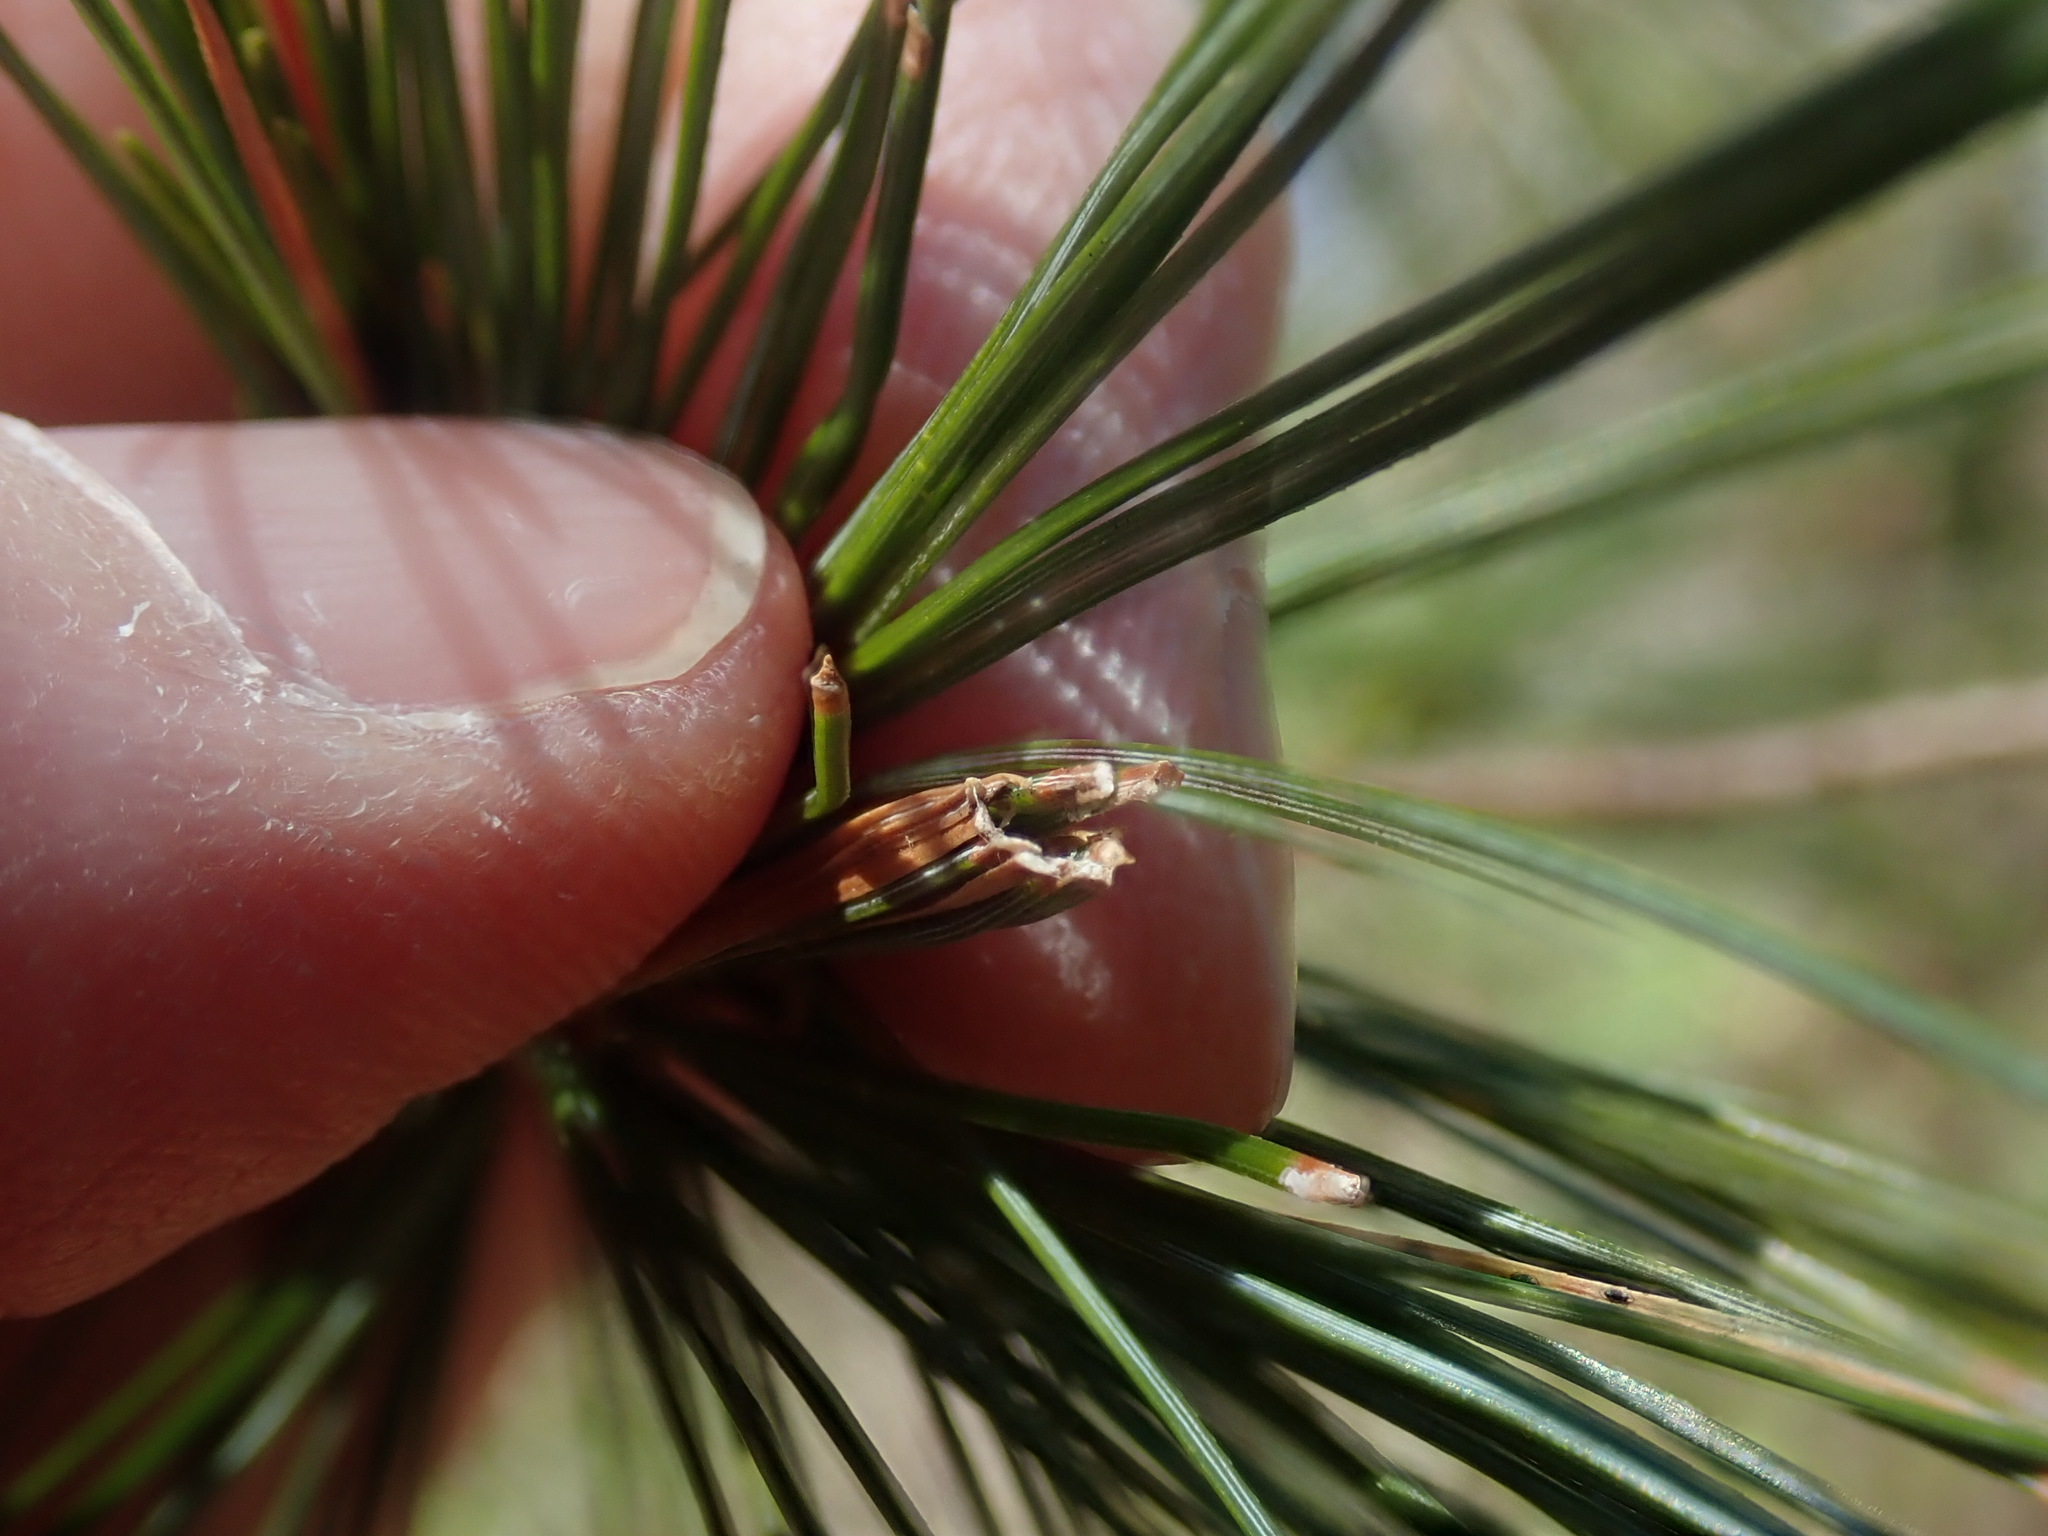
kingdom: Animalia
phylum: Arthropoda
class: Insecta
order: Lepidoptera
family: Tortricidae
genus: Argyrotaenia
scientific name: Argyrotaenia pinatubana
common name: Pine tube moth
